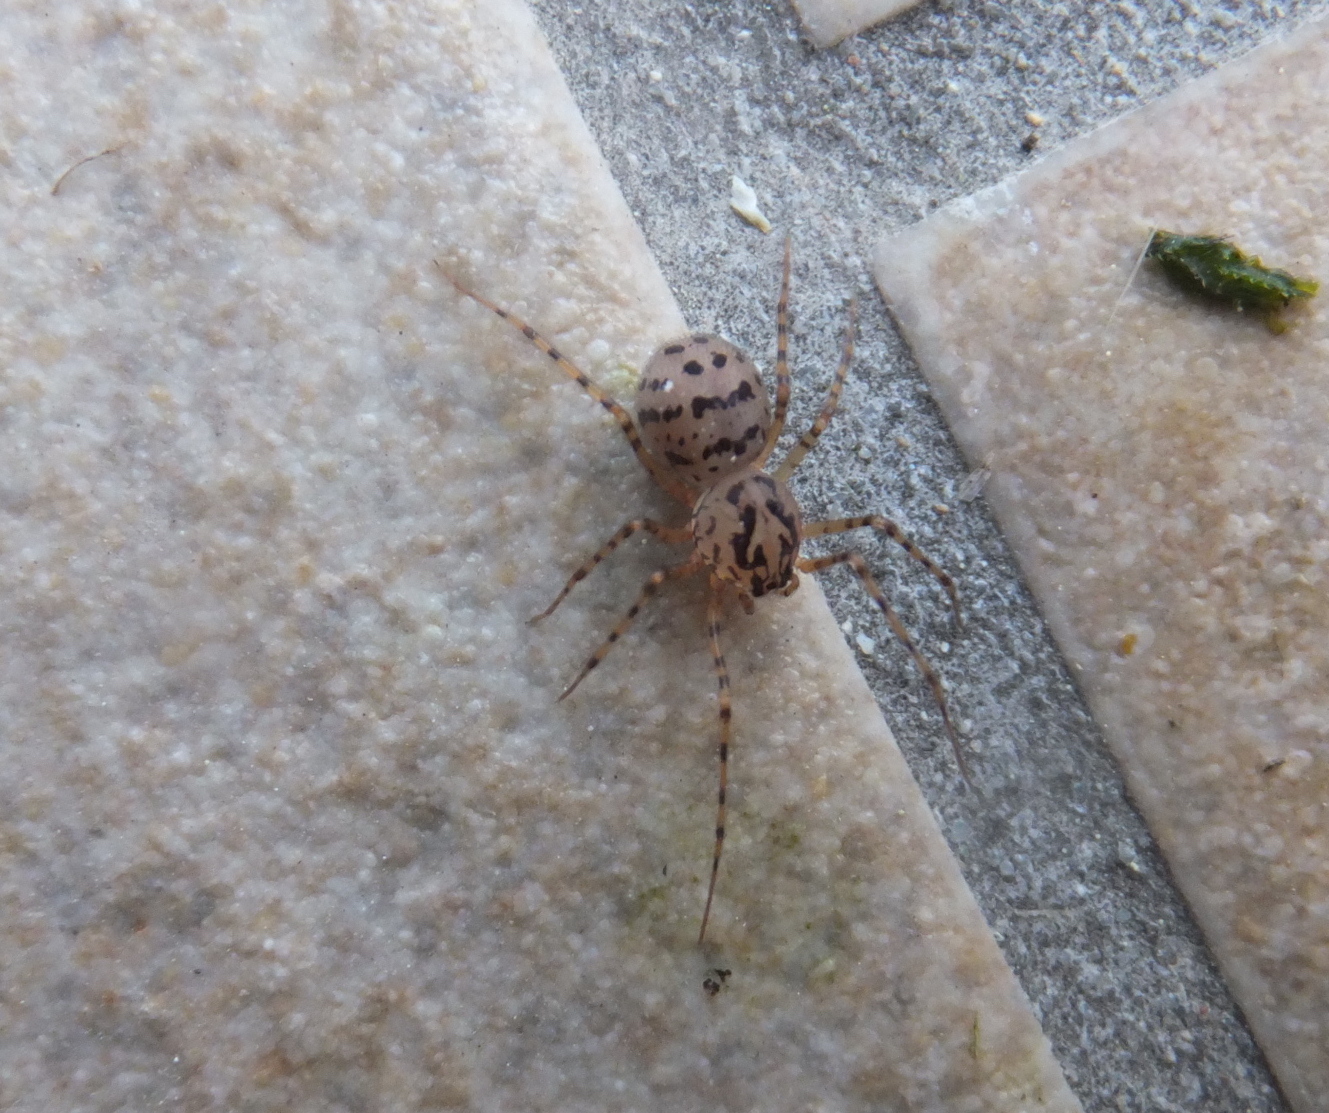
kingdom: Animalia
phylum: Arthropoda
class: Arachnida
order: Araneae
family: Scytodidae
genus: Scytodes
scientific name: Scytodes thoracica
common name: Spitting spider
